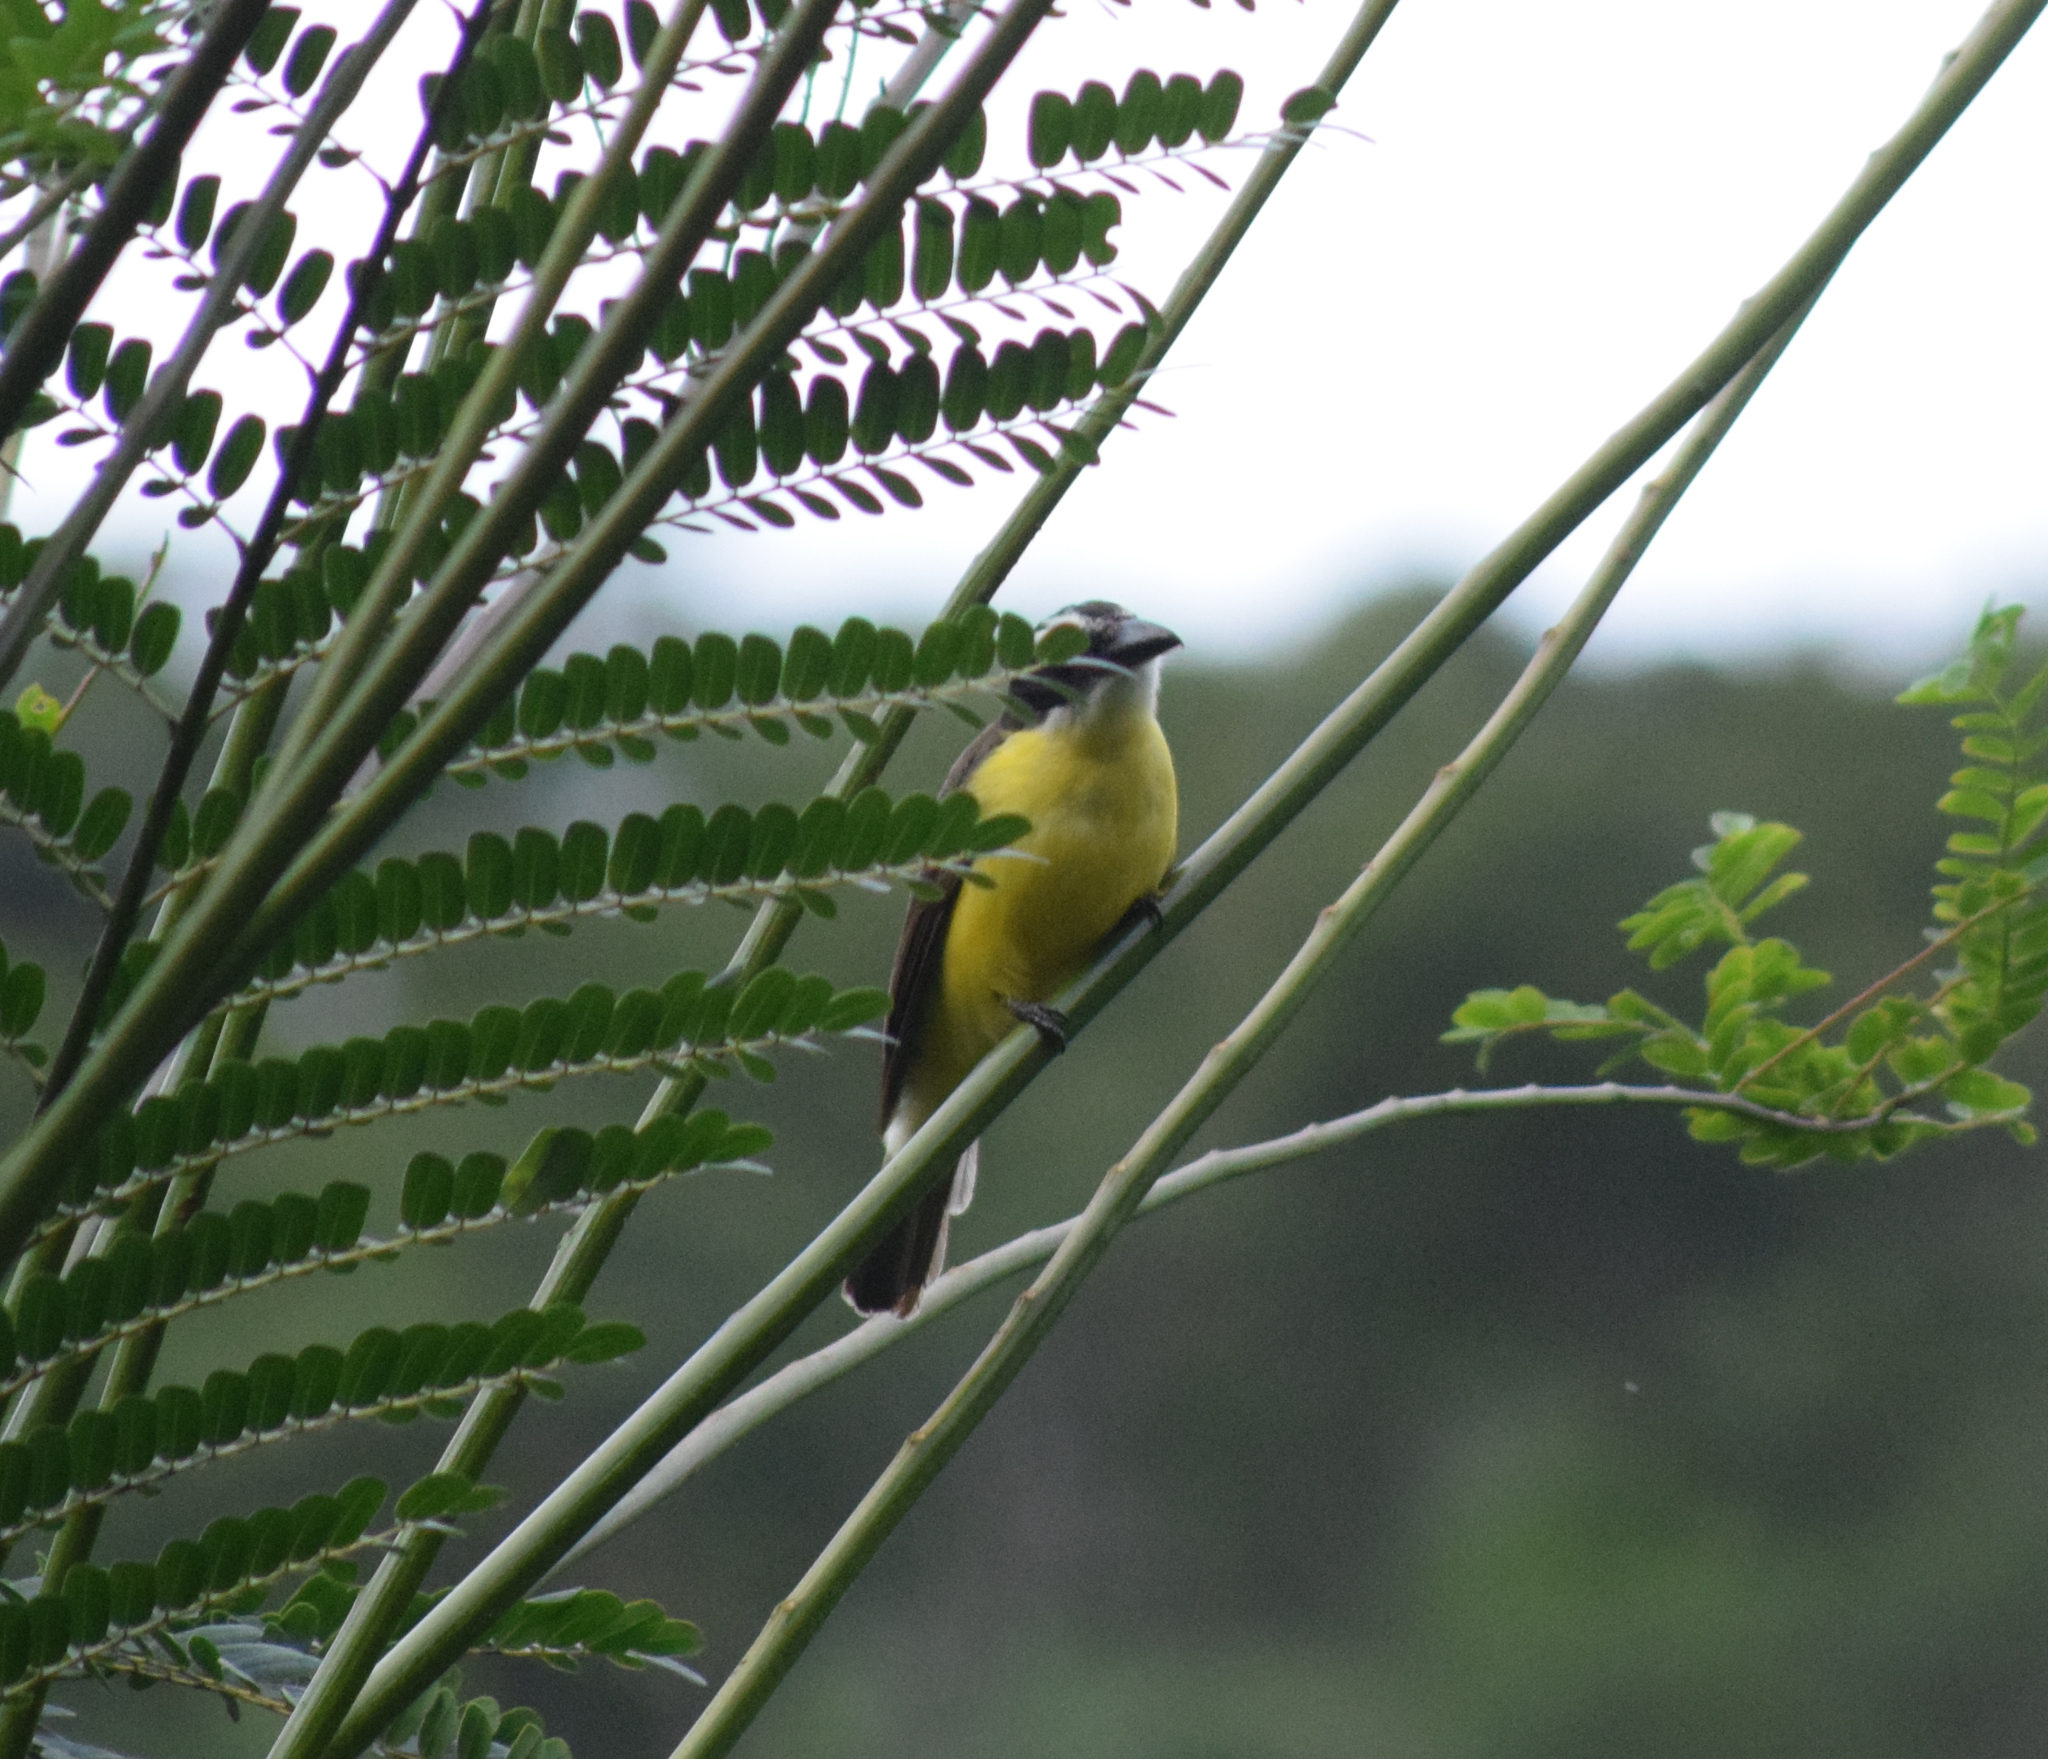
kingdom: Animalia
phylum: Chordata
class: Aves
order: Passeriformes
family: Tyrannidae
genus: Megarynchus
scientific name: Megarynchus pitangua
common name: Boat-billed flycatcher
